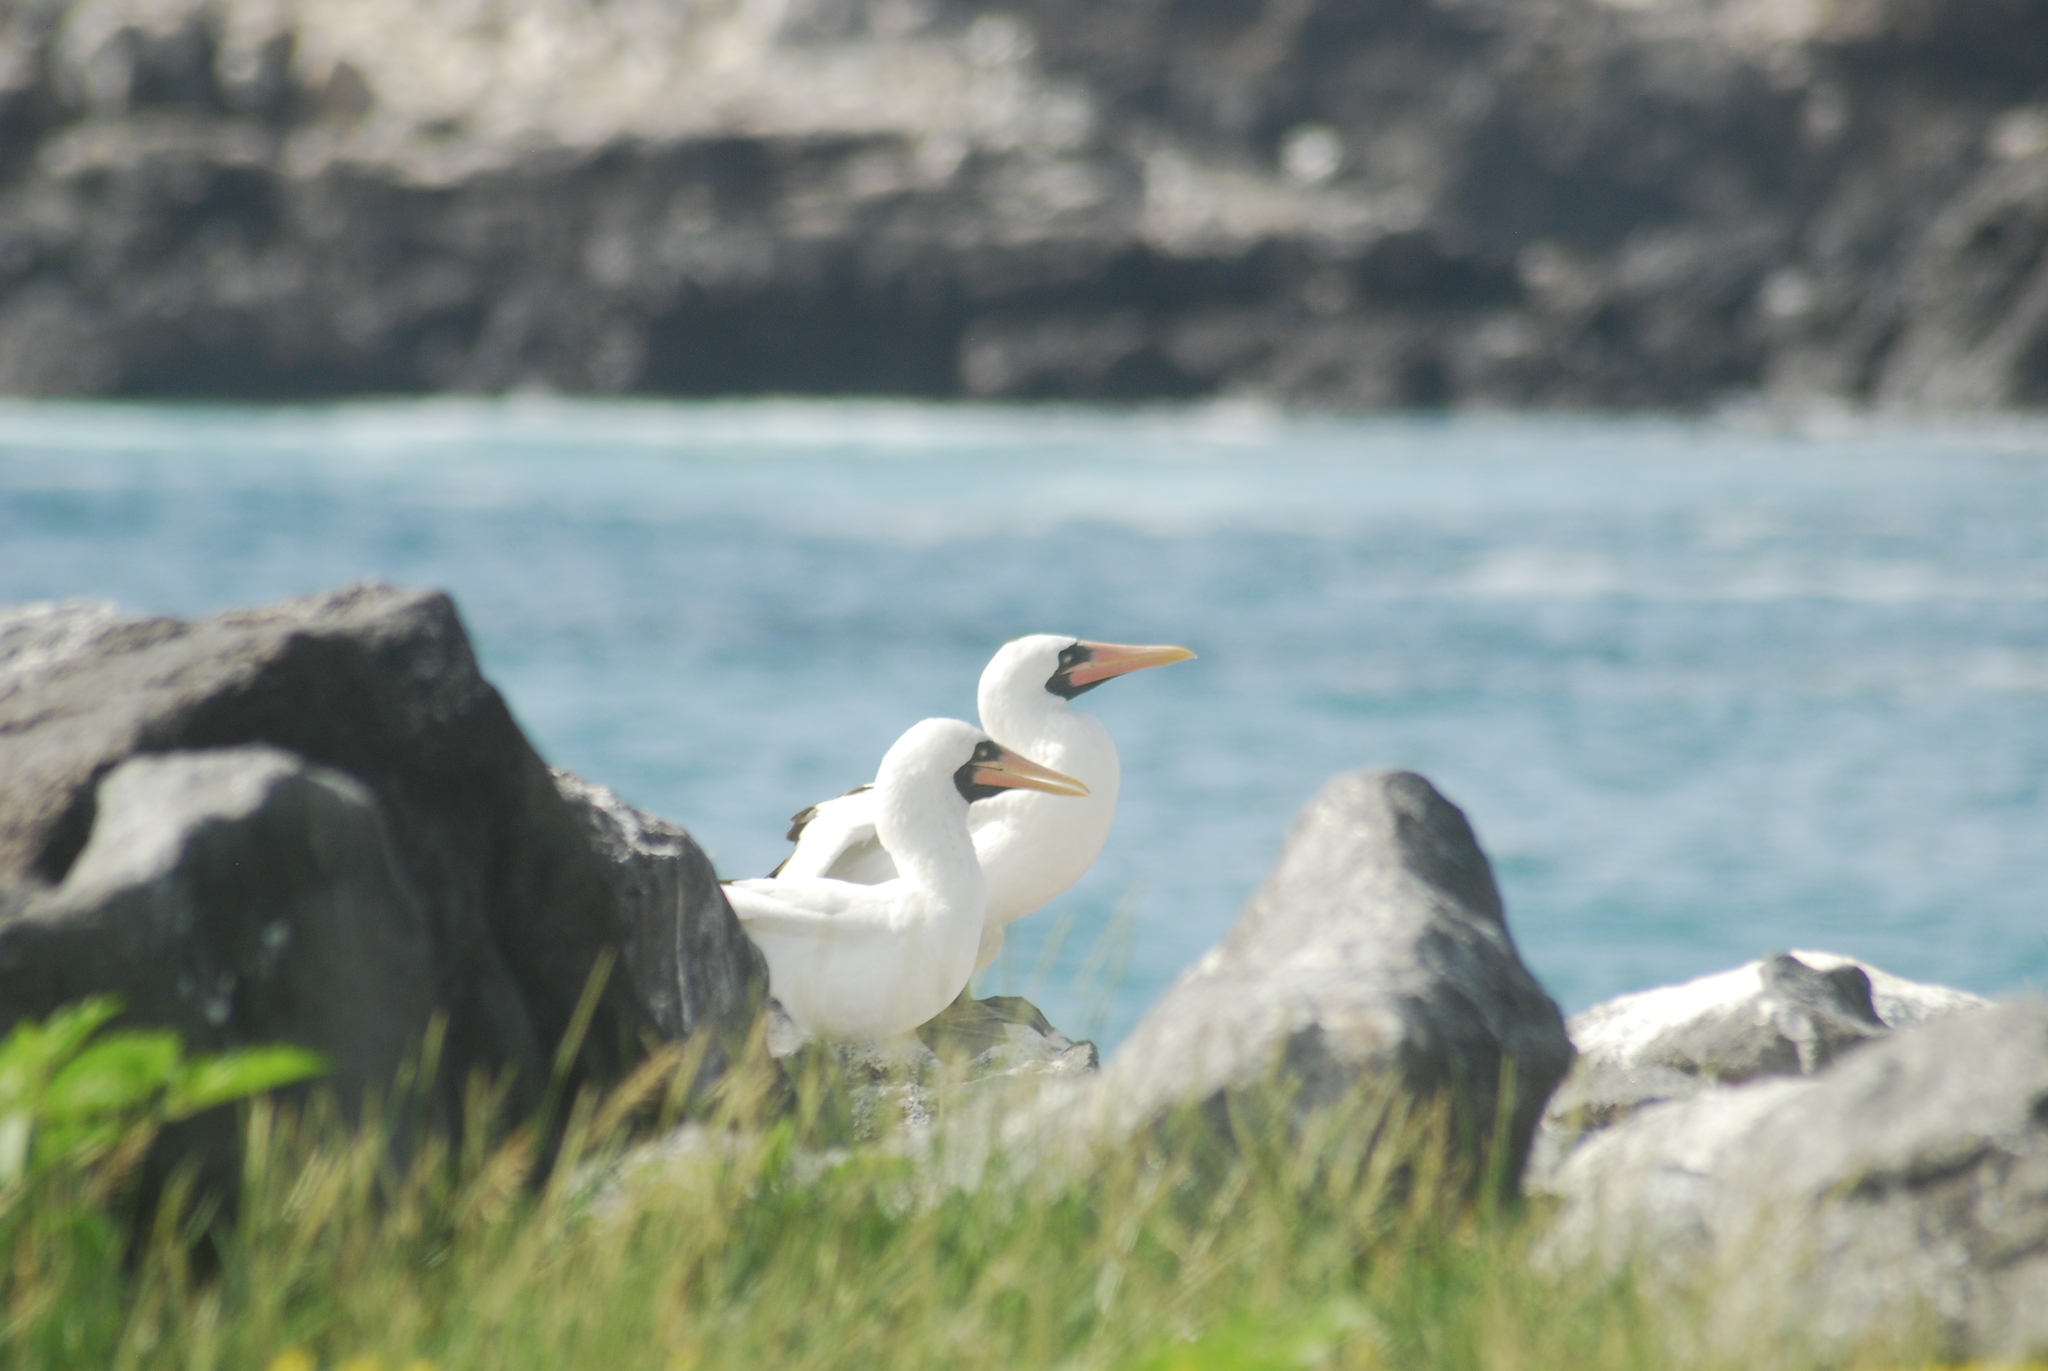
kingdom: Animalia
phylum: Chordata
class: Aves
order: Suliformes
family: Sulidae
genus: Sula
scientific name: Sula granti
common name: Nazca booby
